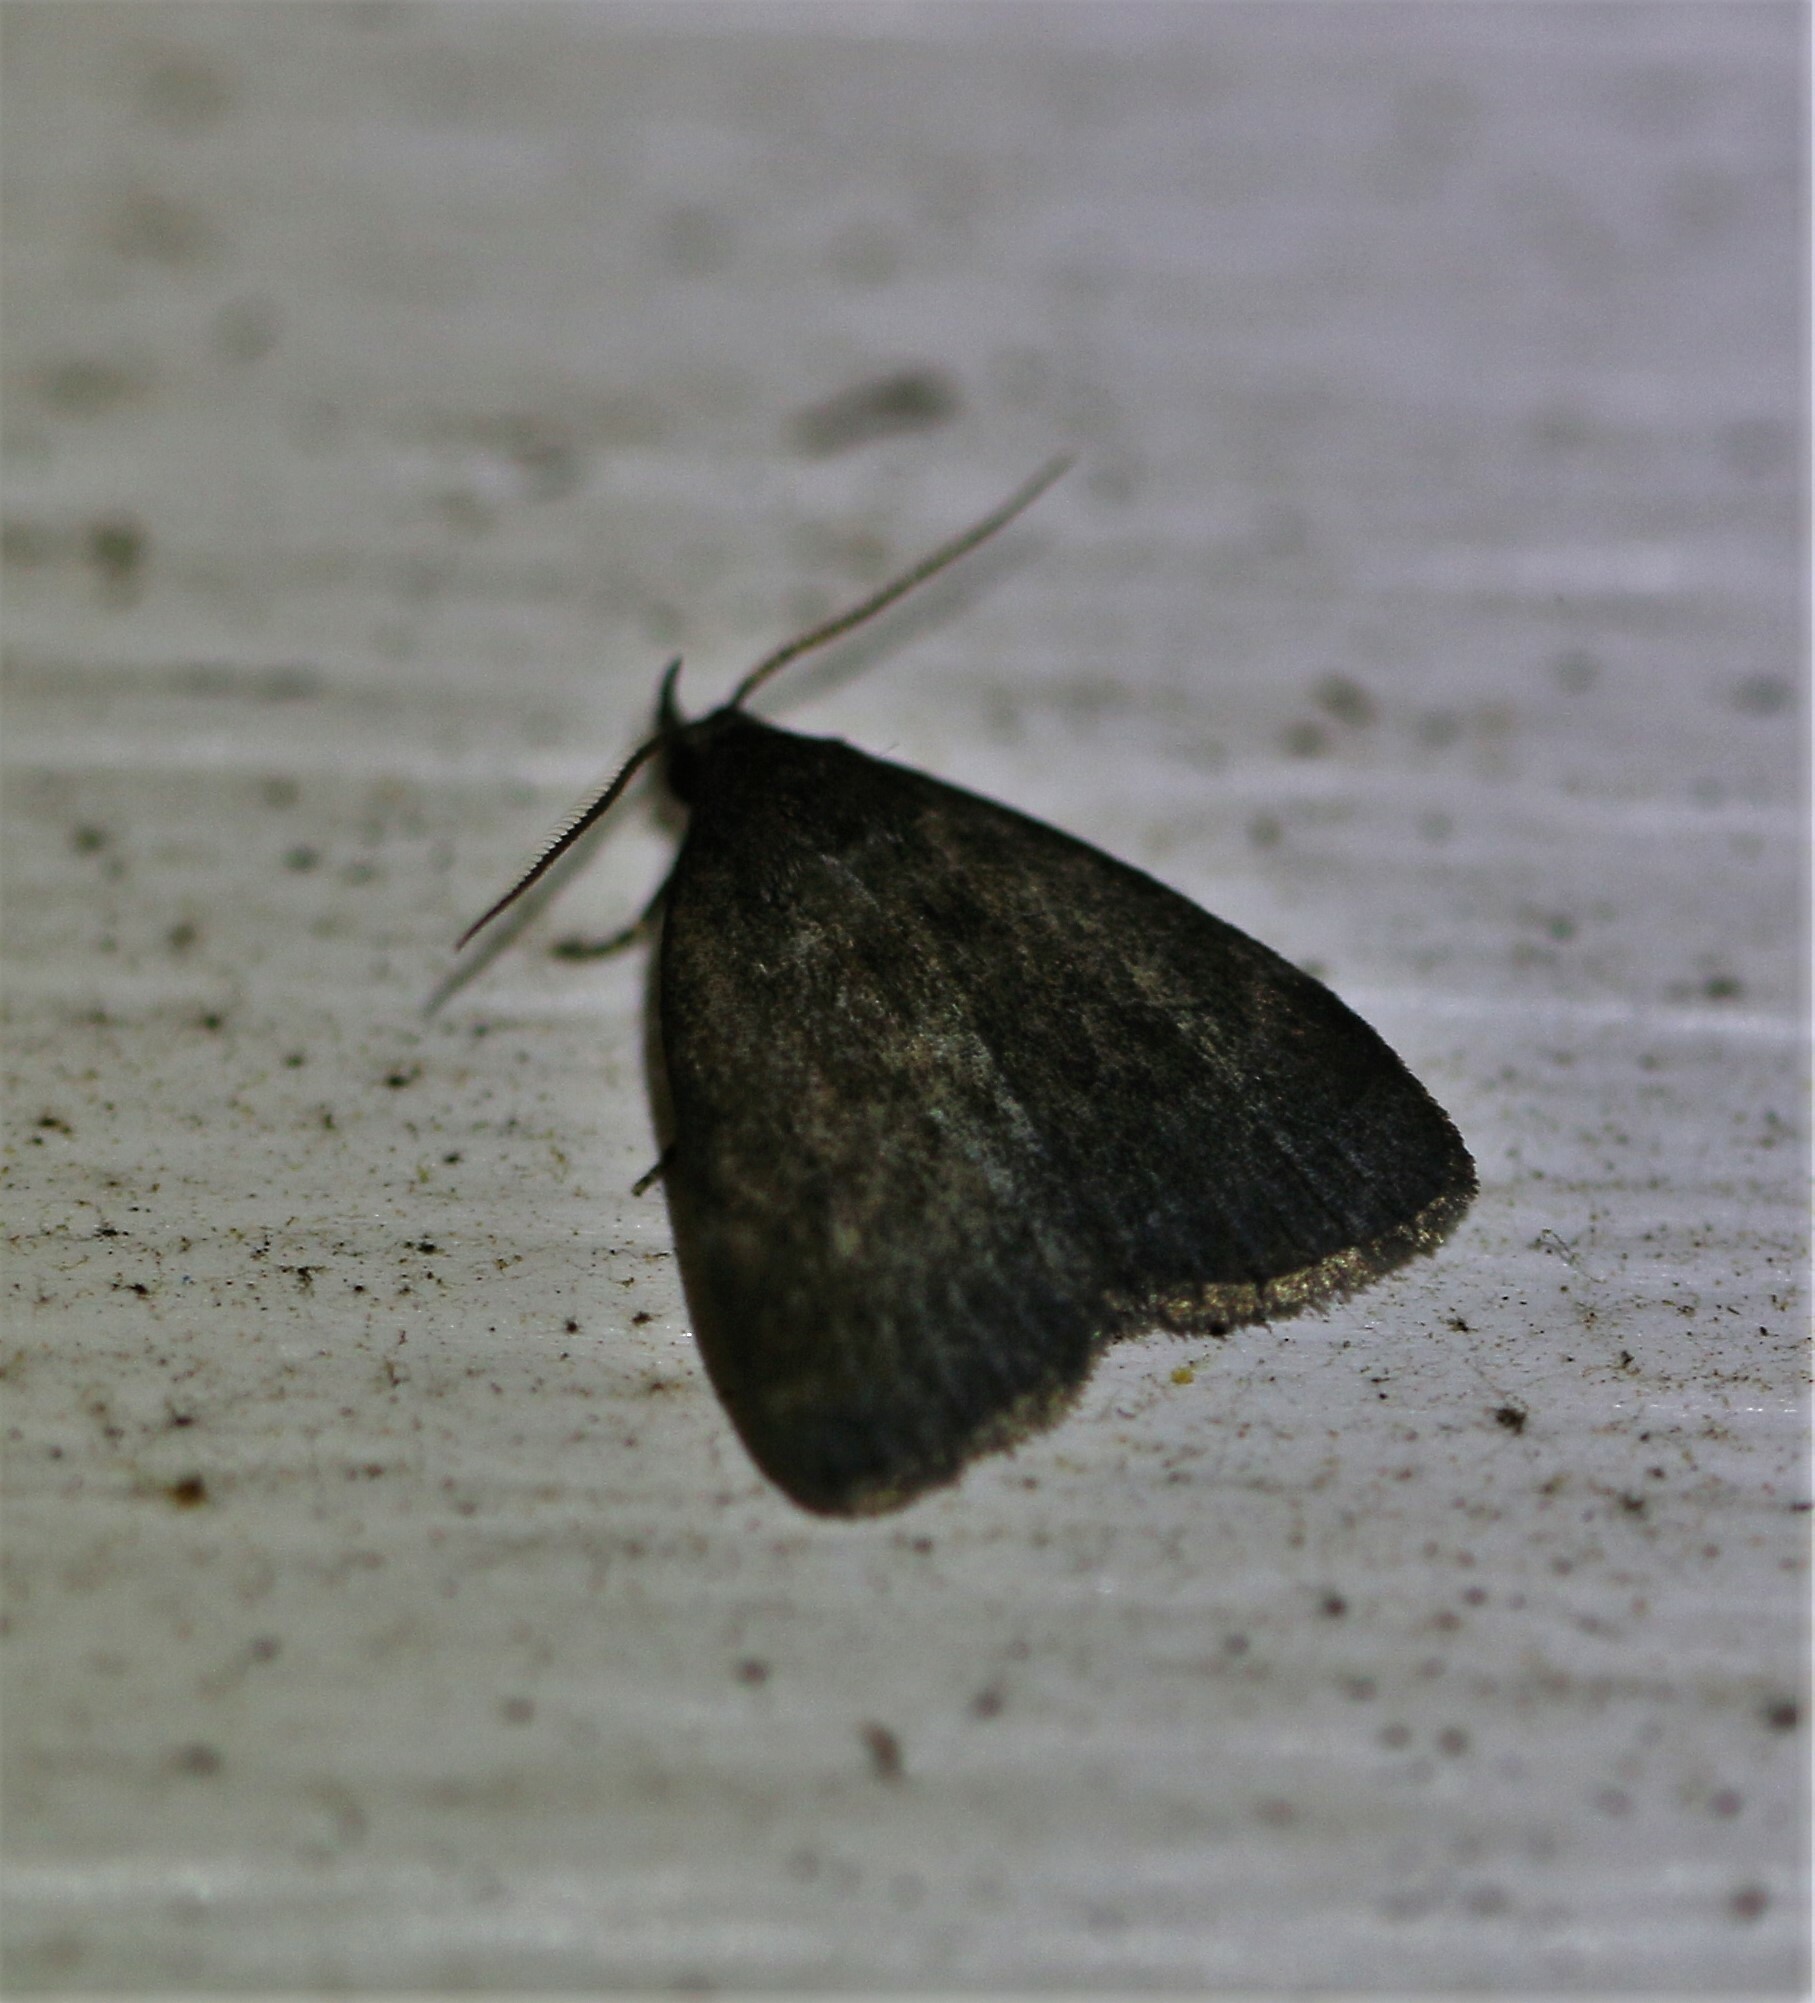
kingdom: Animalia
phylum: Arthropoda
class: Insecta
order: Lepidoptera
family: Erebidae
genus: Idia
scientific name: Idia rotundalis
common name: Rotund idia moth
